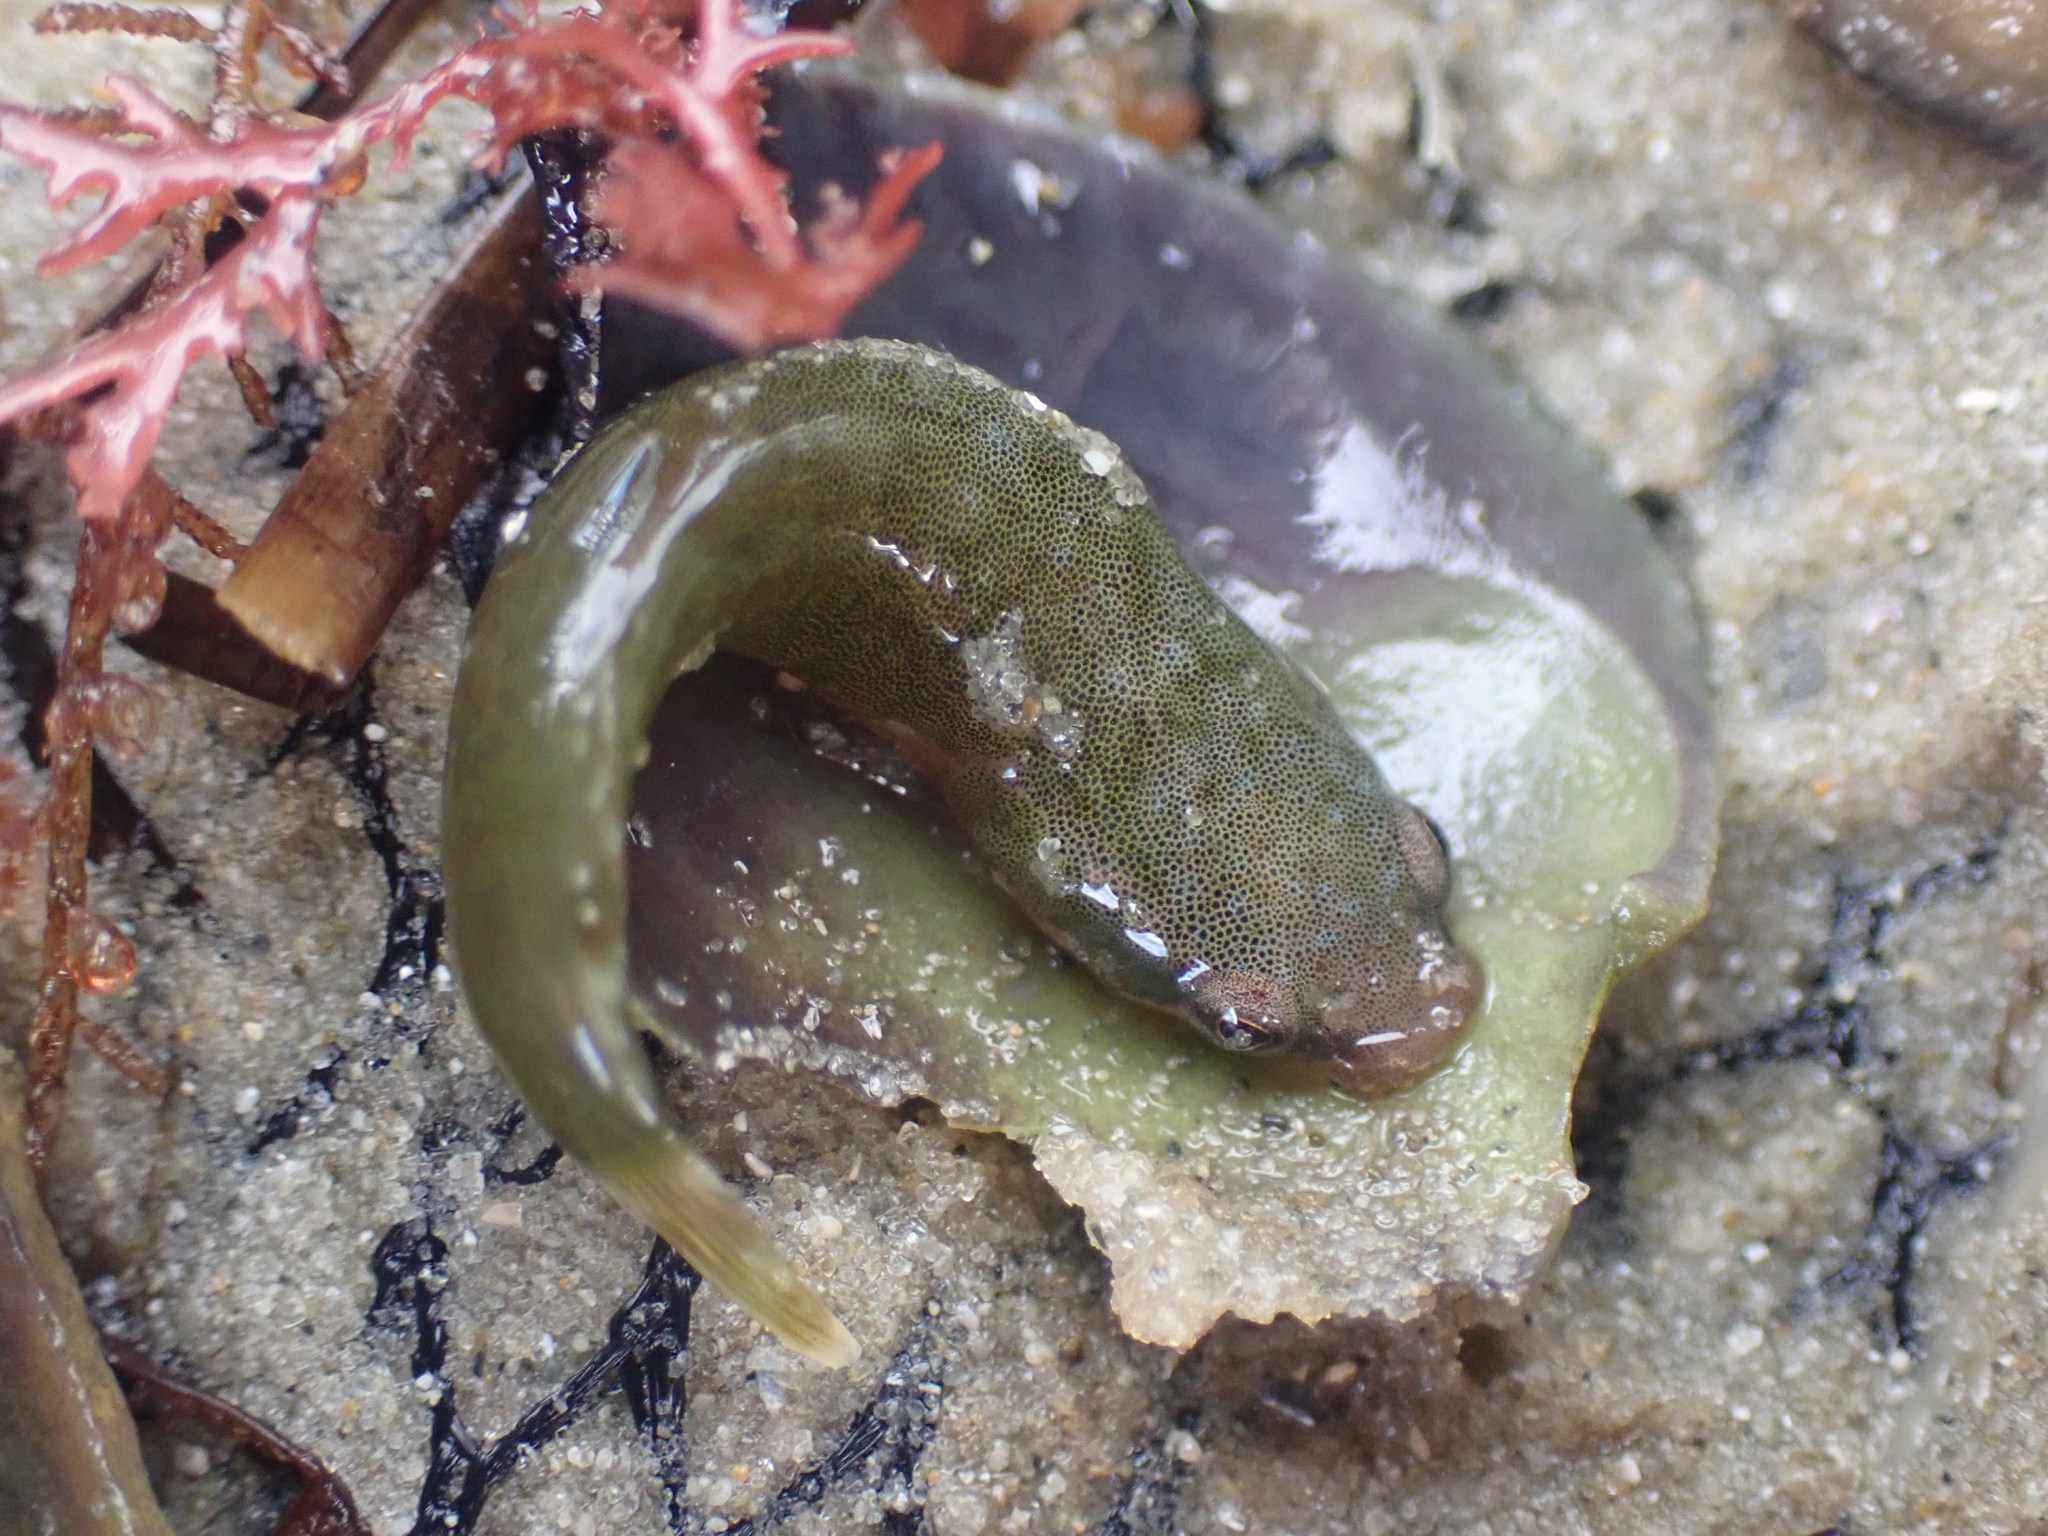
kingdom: Animalia
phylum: Chordata
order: Gobiesociformes
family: Gobiesocidae
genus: Trachelochismus
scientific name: Trachelochismus aestuarium
